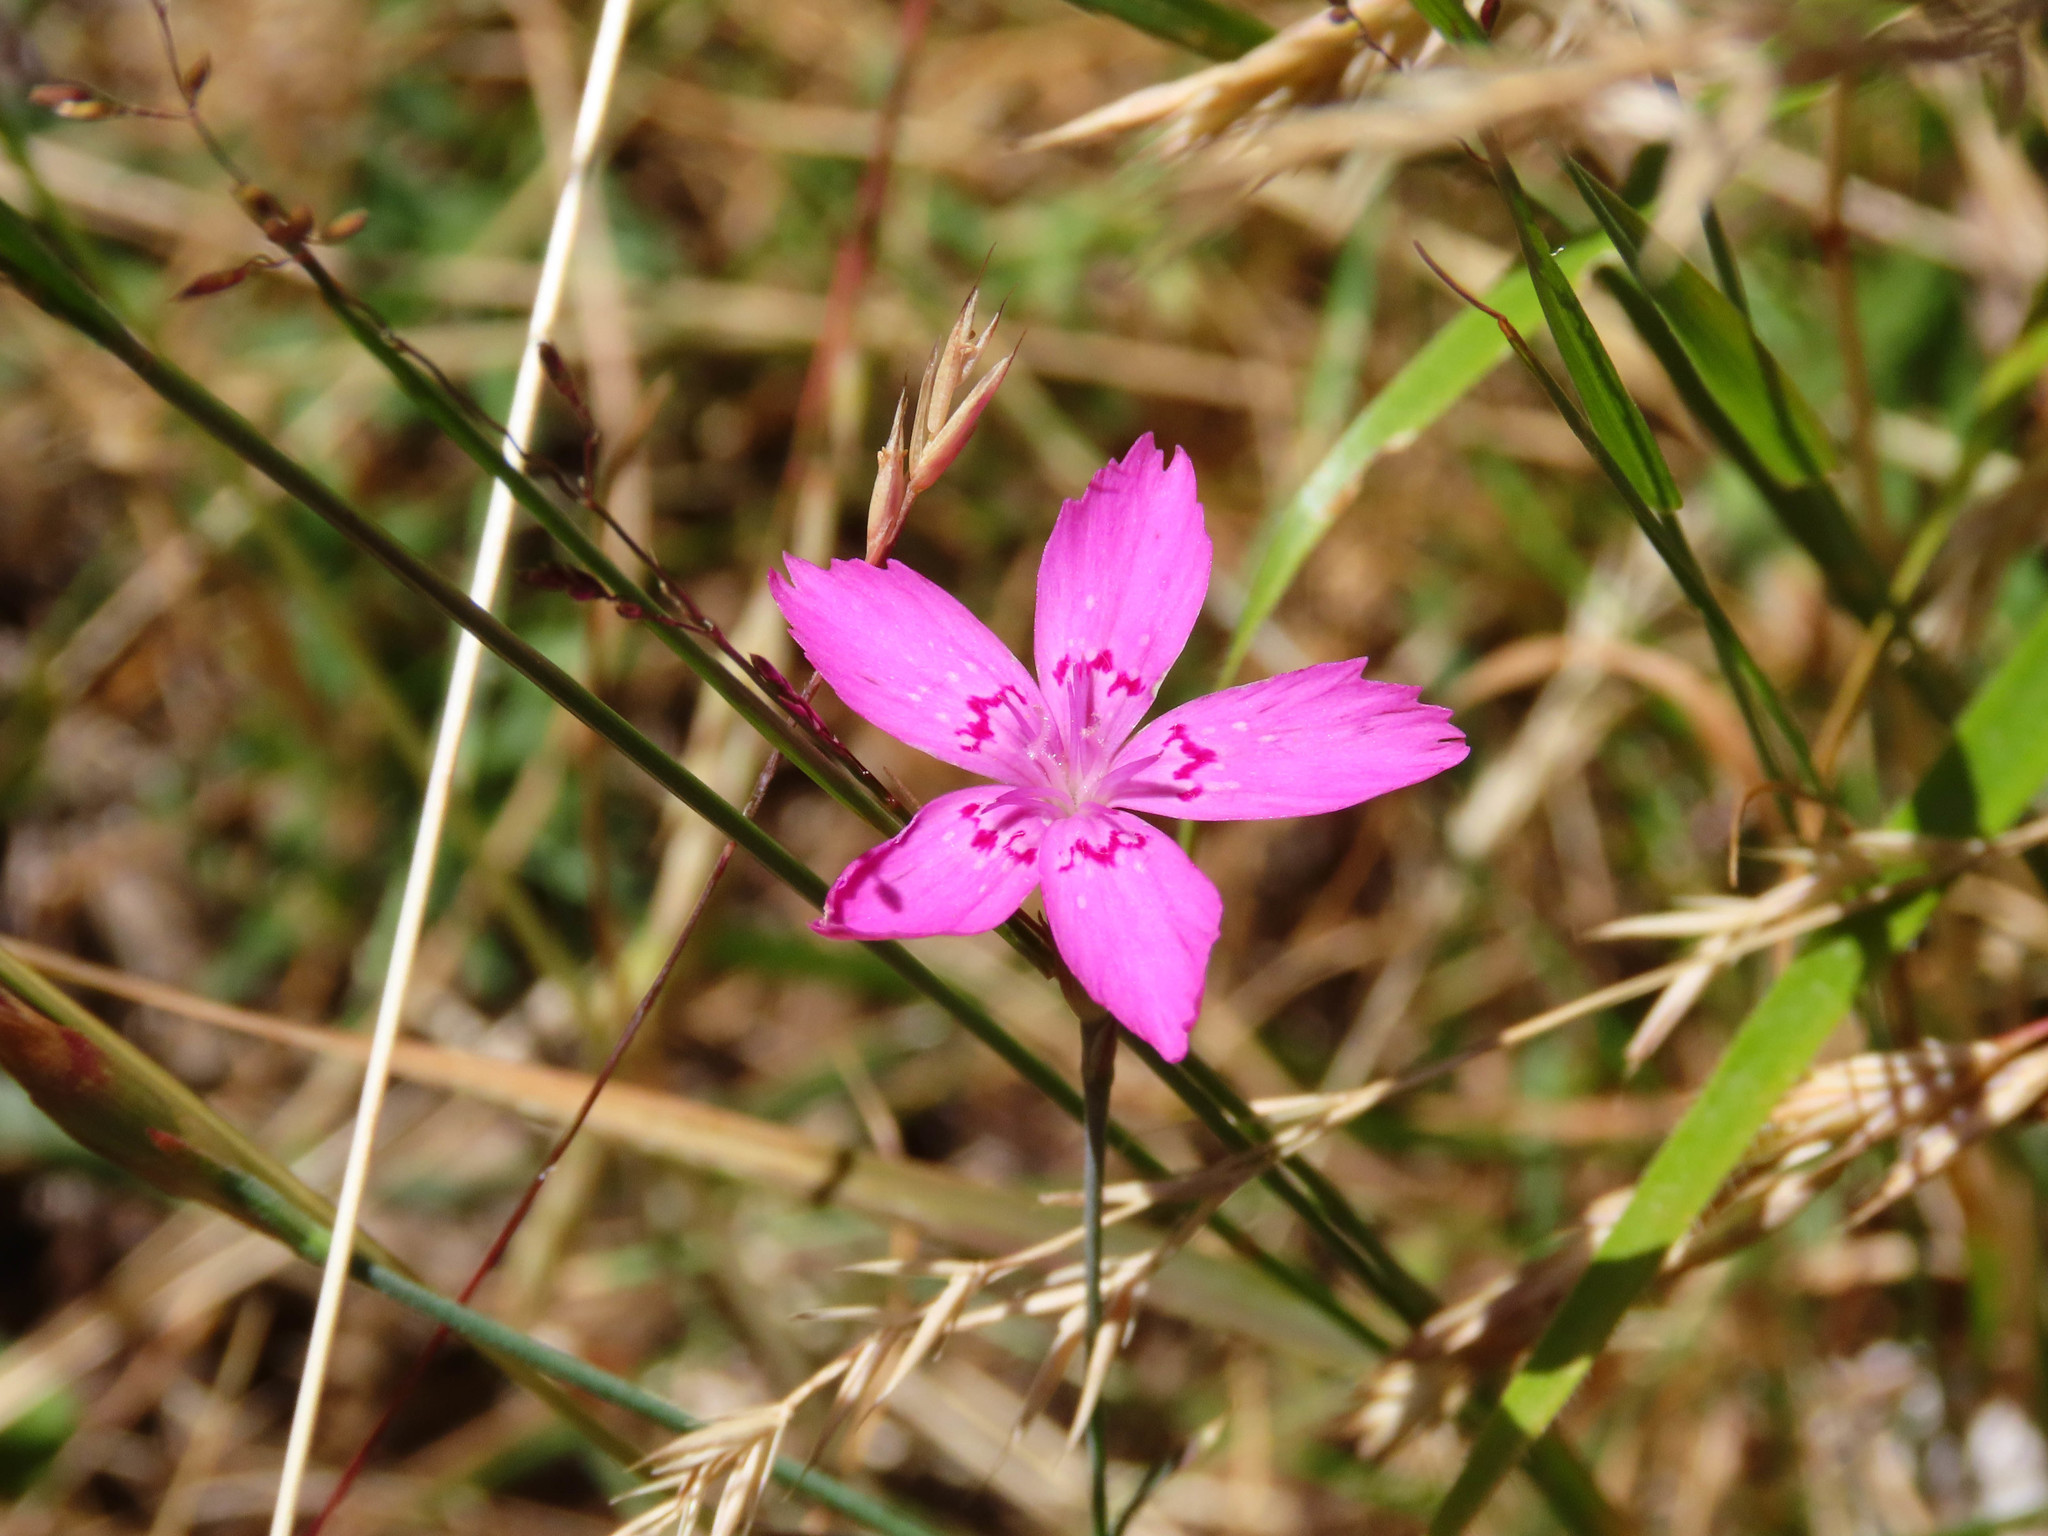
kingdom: Plantae
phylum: Tracheophyta
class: Magnoliopsida
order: Caryophyllales
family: Caryophyllaceae
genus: Dianthus
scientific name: Dianthus deltoides
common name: Maiden pink
